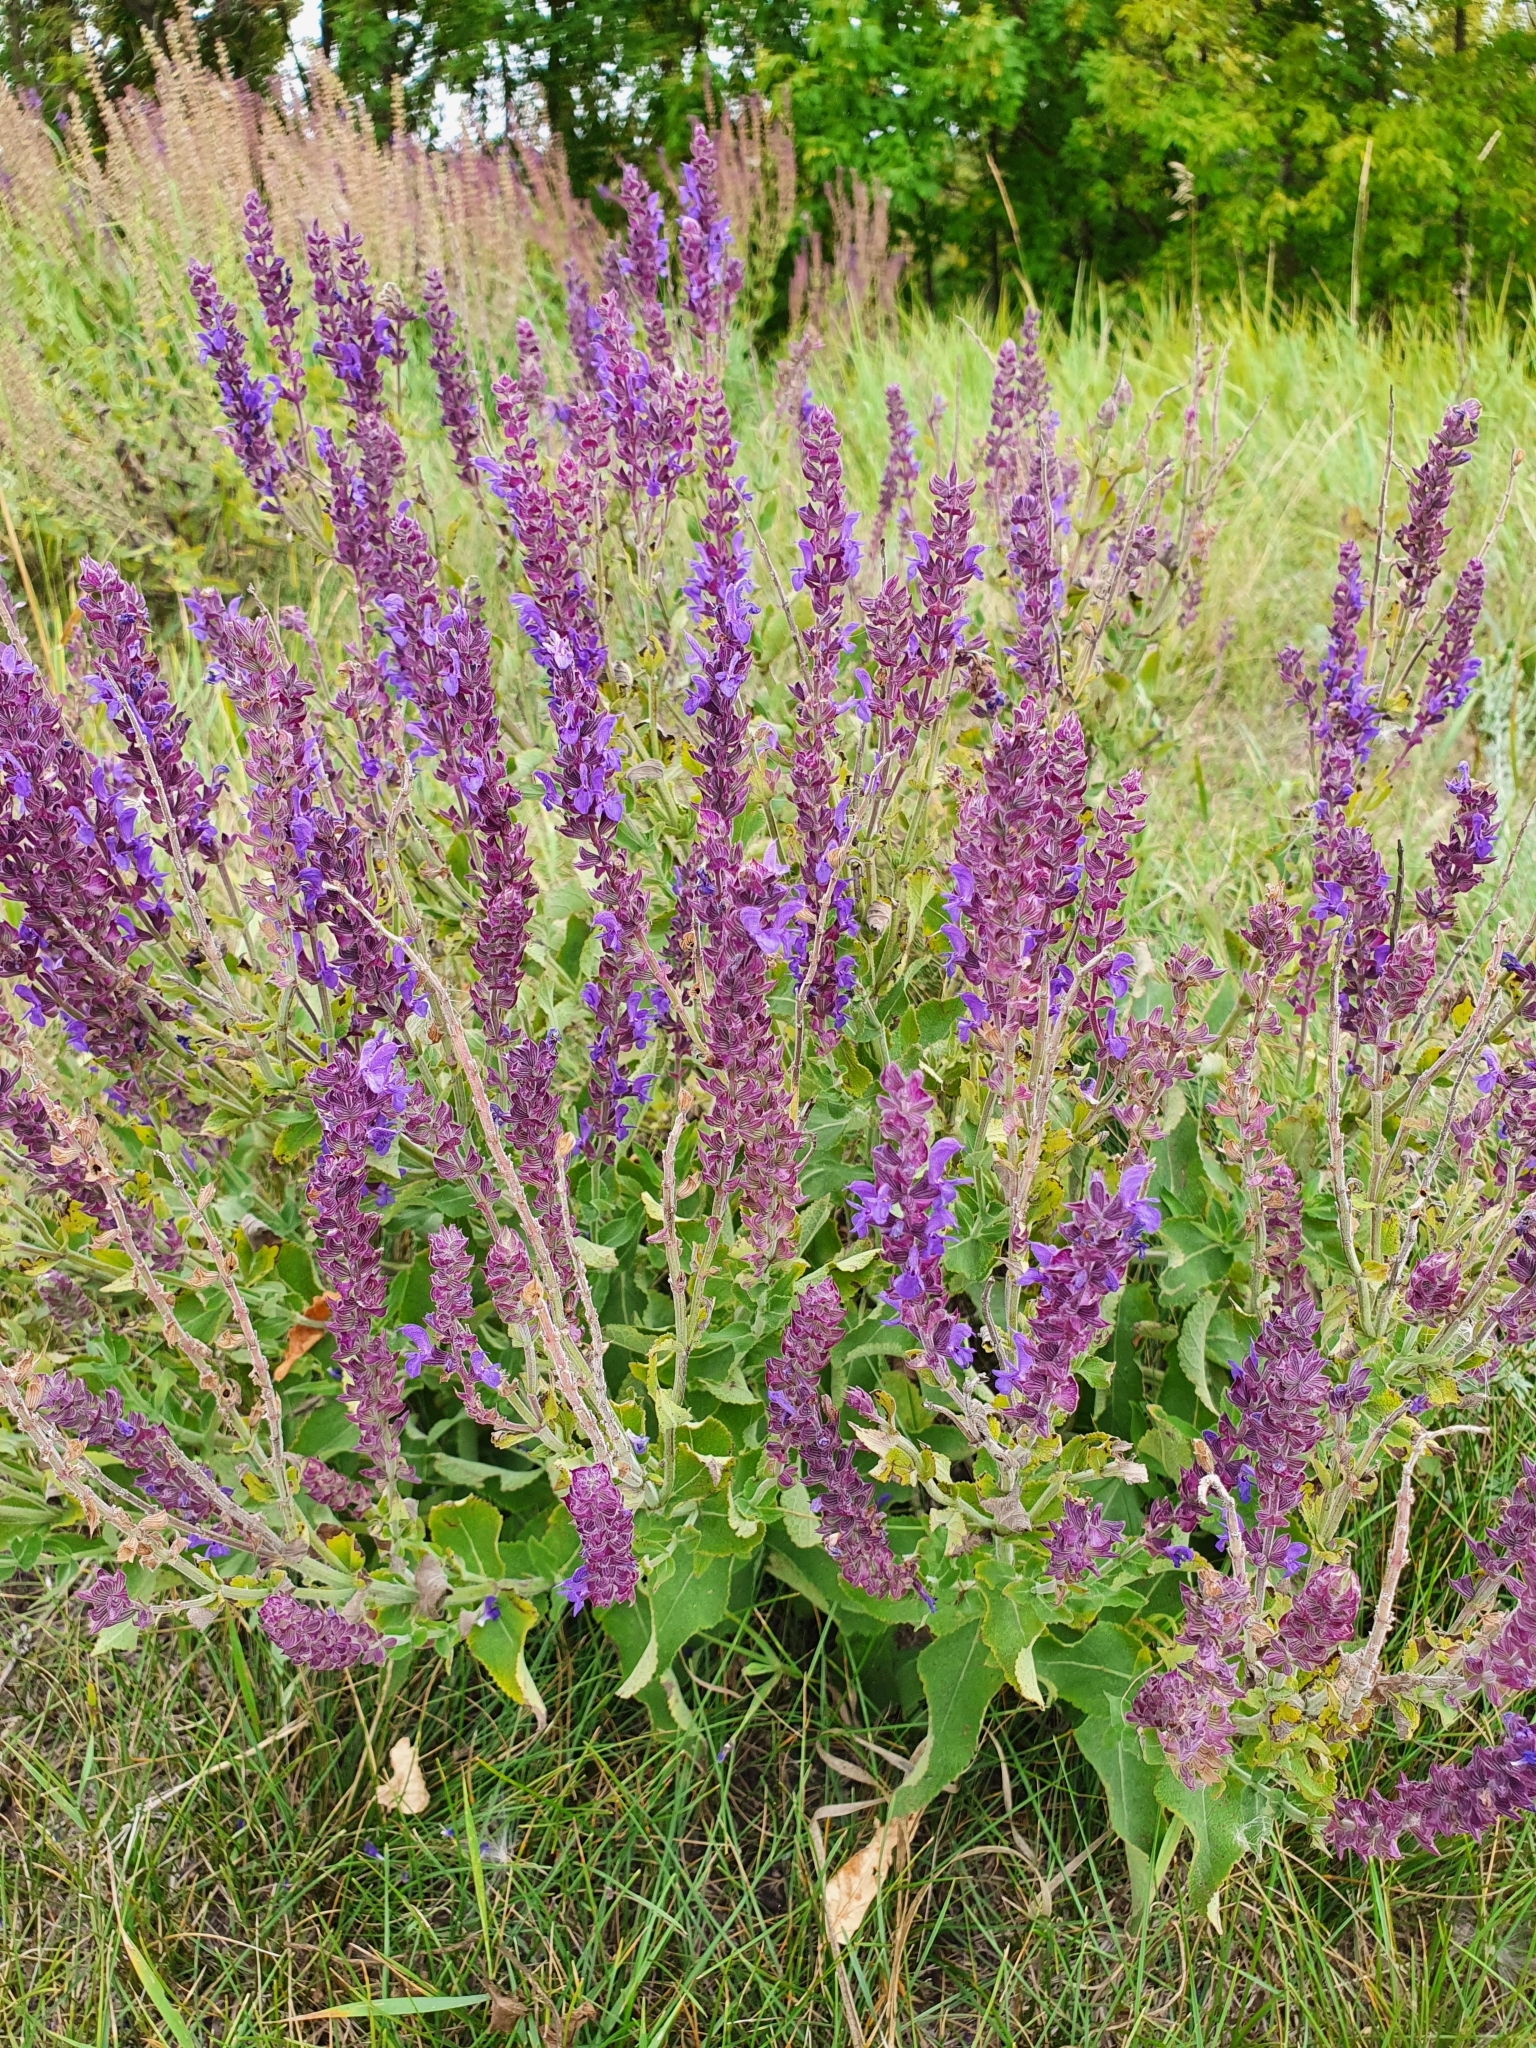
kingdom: Plantae
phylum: Tracheophyta
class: Magnoliopsida
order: Lamiales
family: Lamiaceae
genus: Salvia
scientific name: Salvia nemorosa
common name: Balkan clary
